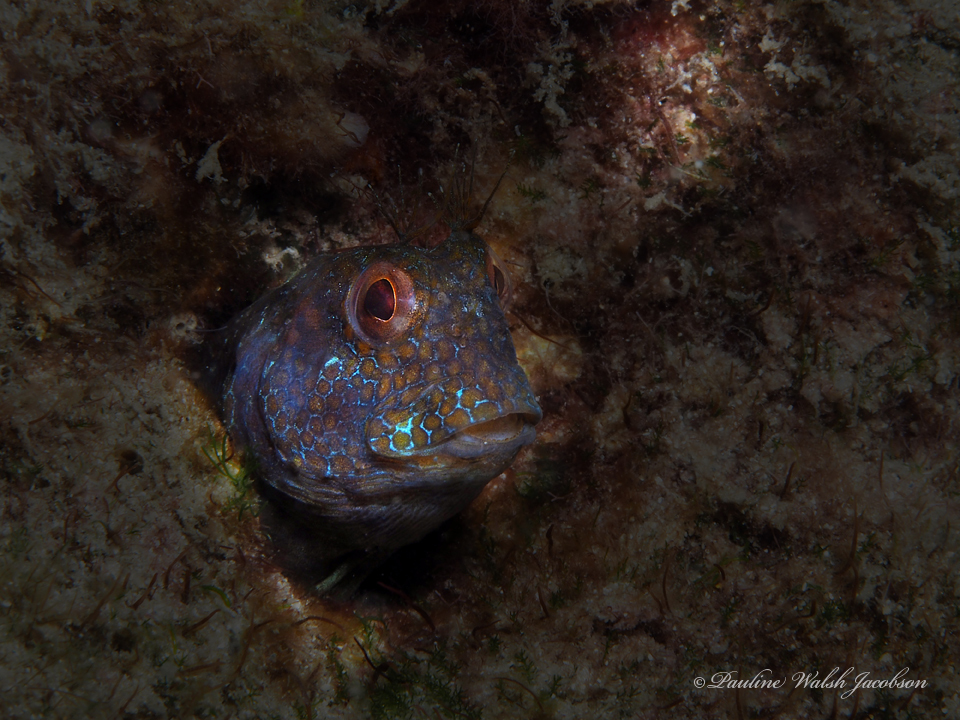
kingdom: Animalia
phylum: Chordata
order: Perciformes
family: Blenniidae
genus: Parablennius
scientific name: Parablennius marmoreus
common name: Seaweed blenny
